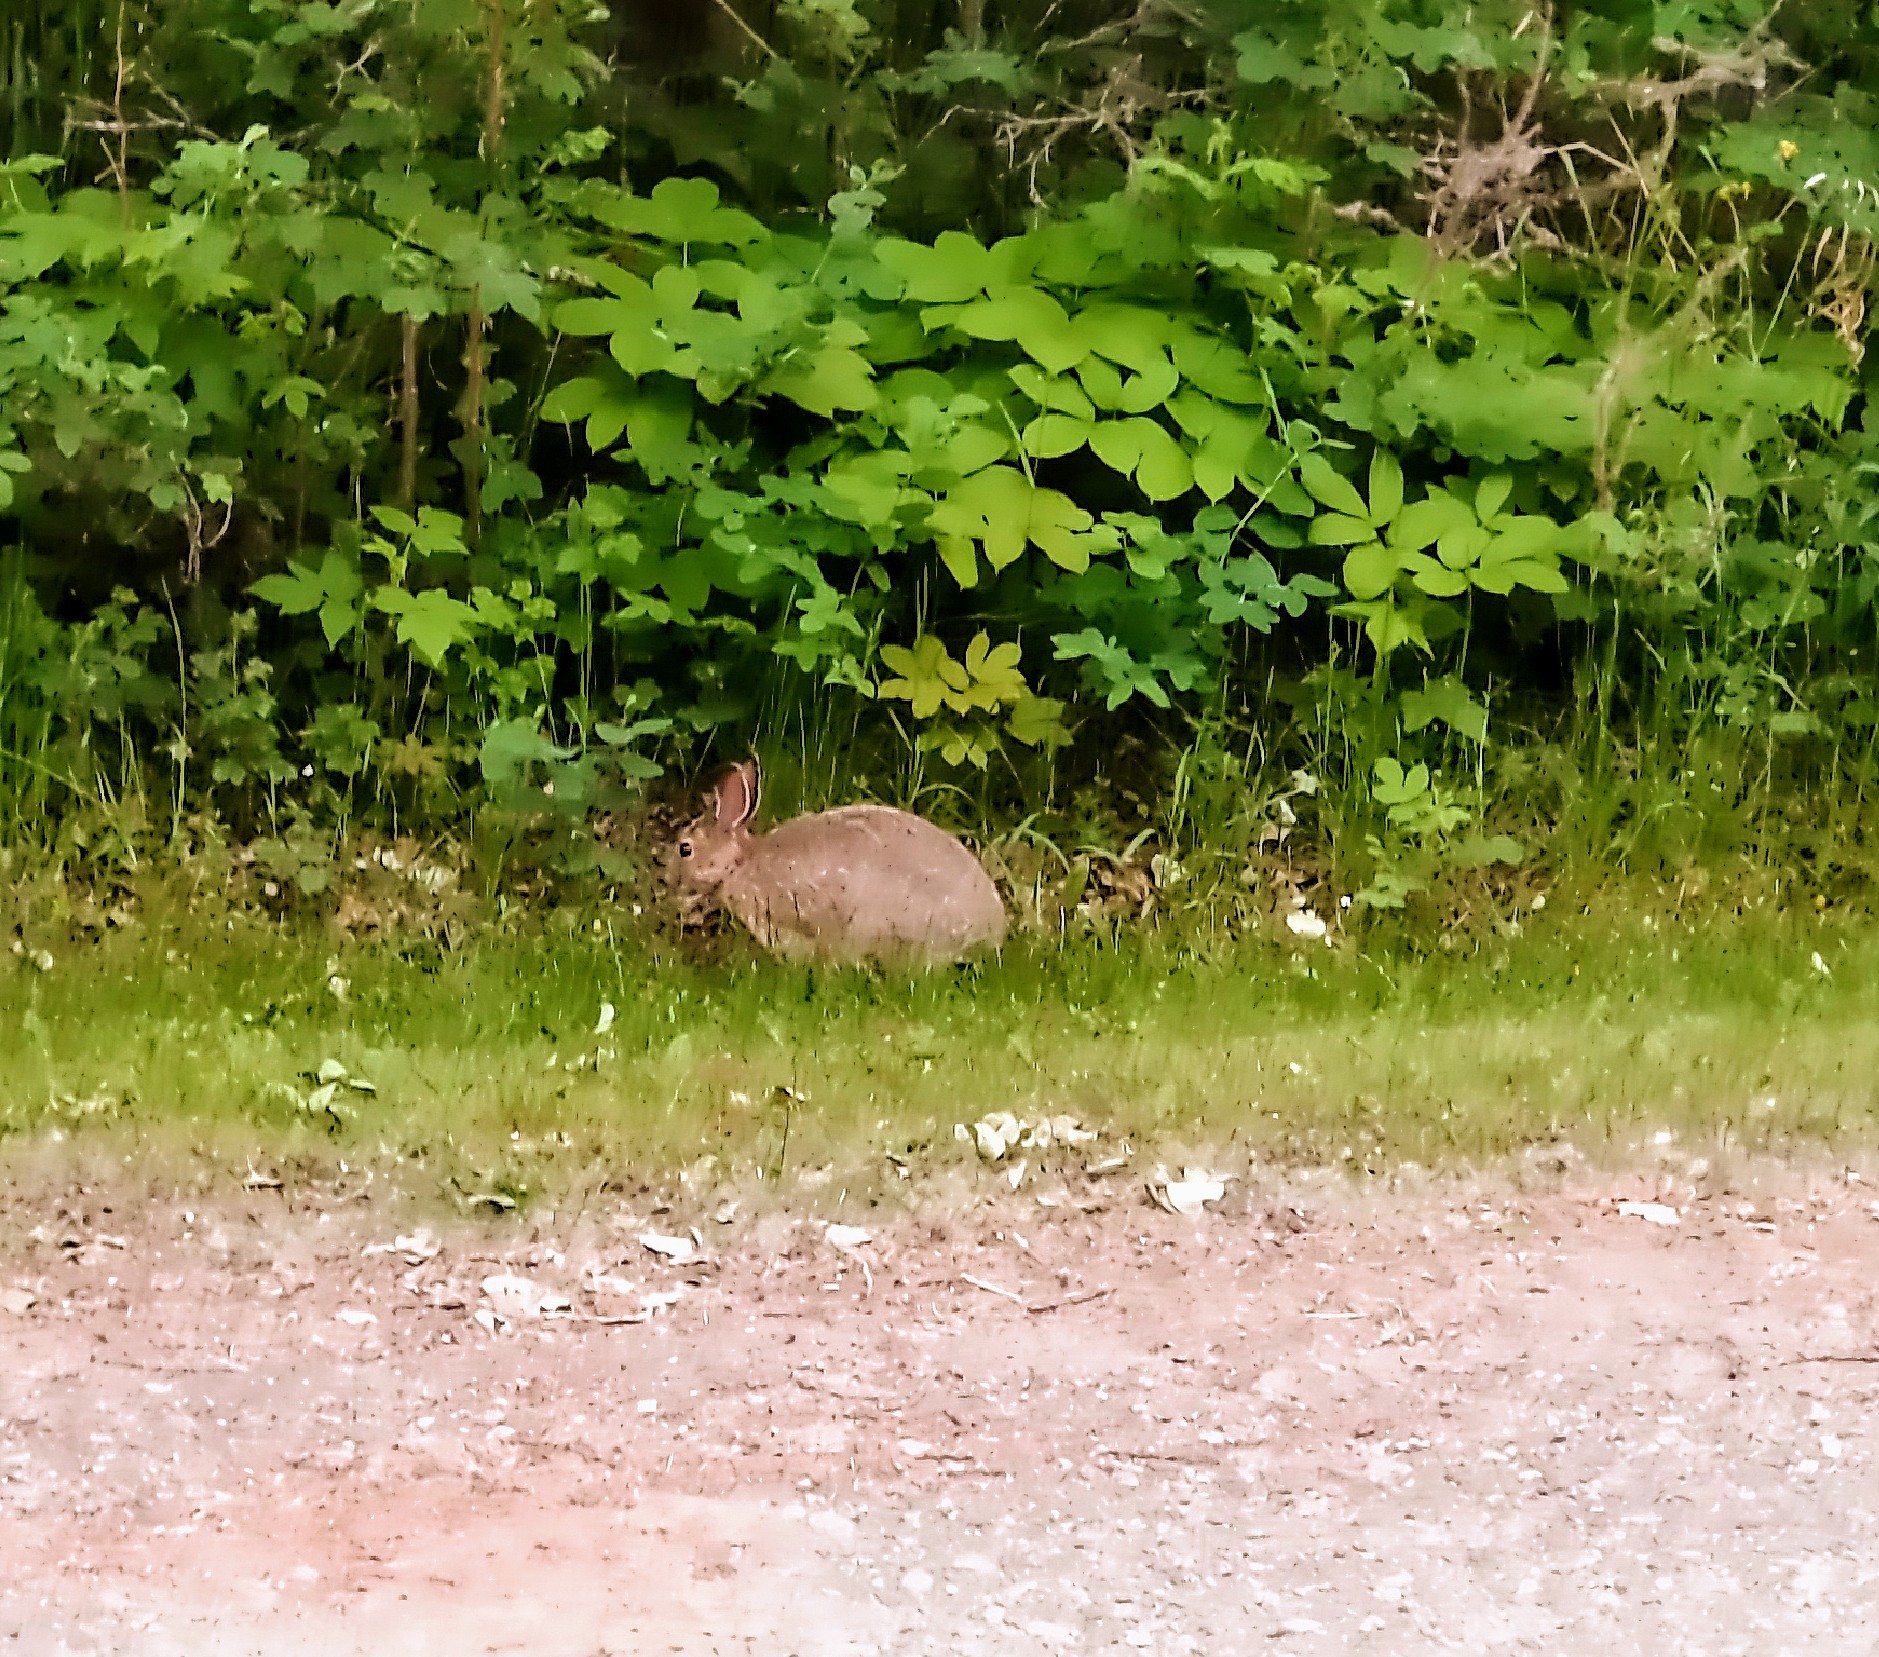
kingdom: Animalia
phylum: Chordata
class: Mammalia
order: Lagomorpha
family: Leporidae
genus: Sylvilagus
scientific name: Sylvilagus nuttallii
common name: Mountain cottontail
